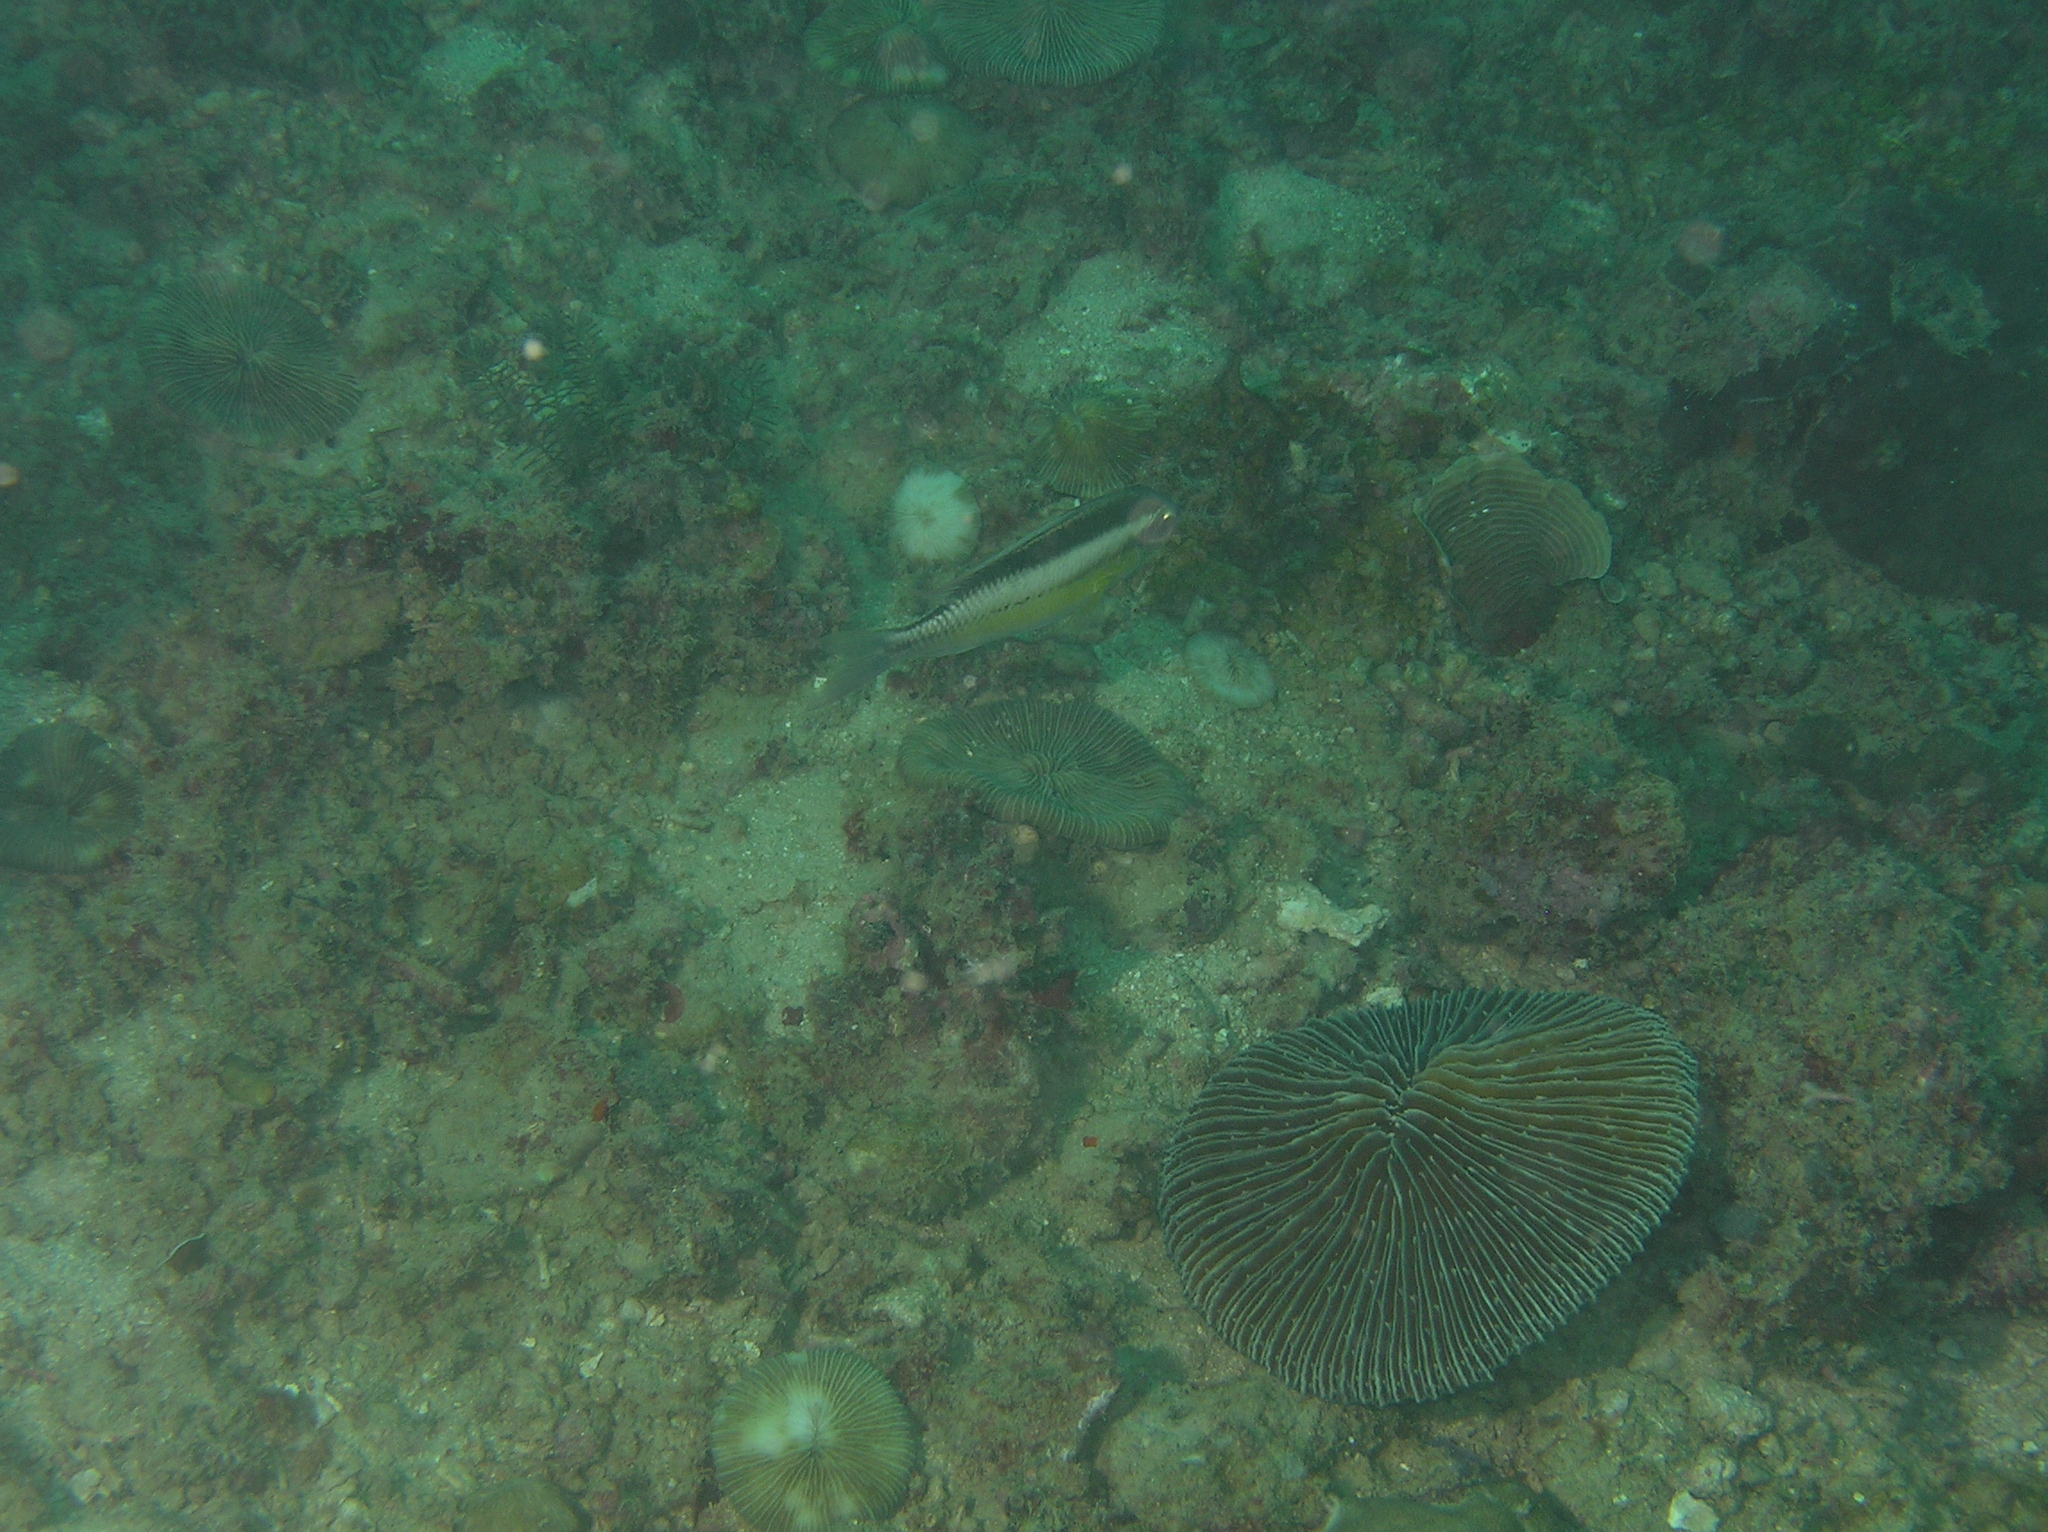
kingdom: Animalia
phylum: Chordata
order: Perciformes
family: Nemipteridae
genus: Scolopsis
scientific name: Scolopsis margaritifera
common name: Pearly monocle bream
